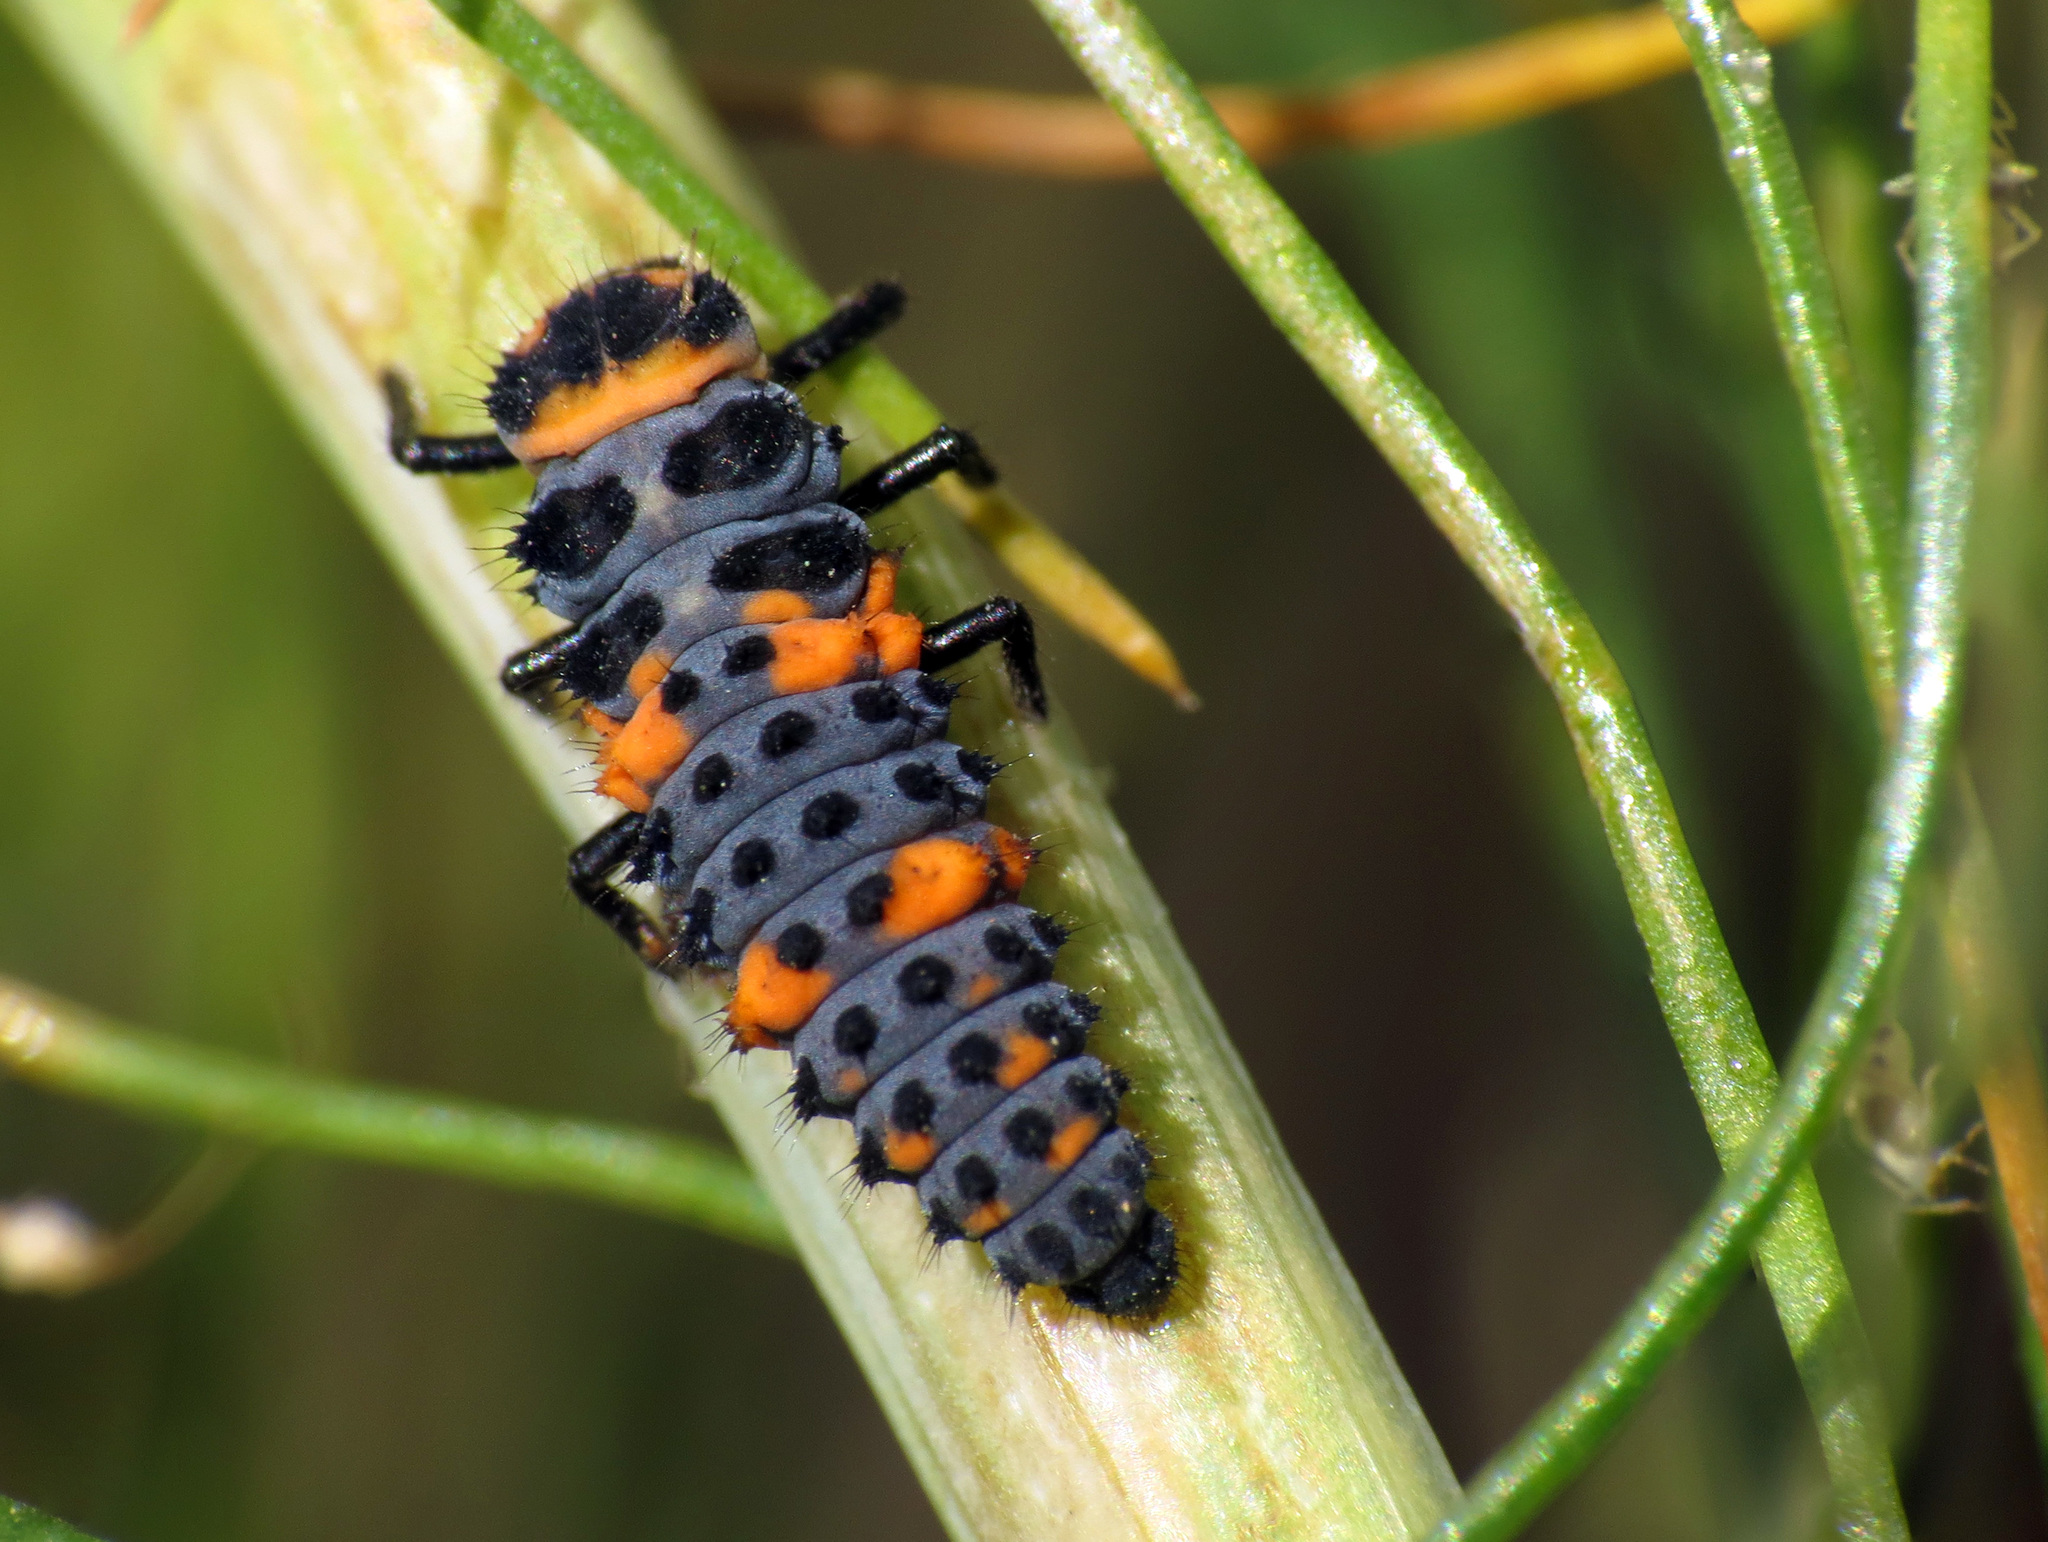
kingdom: Animalia
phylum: Arthropoda
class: Insecta
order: Coleoptera
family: Coccinellidae
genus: Hippodamia
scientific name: Hippodamia convergens
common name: Convergent lady beetle
